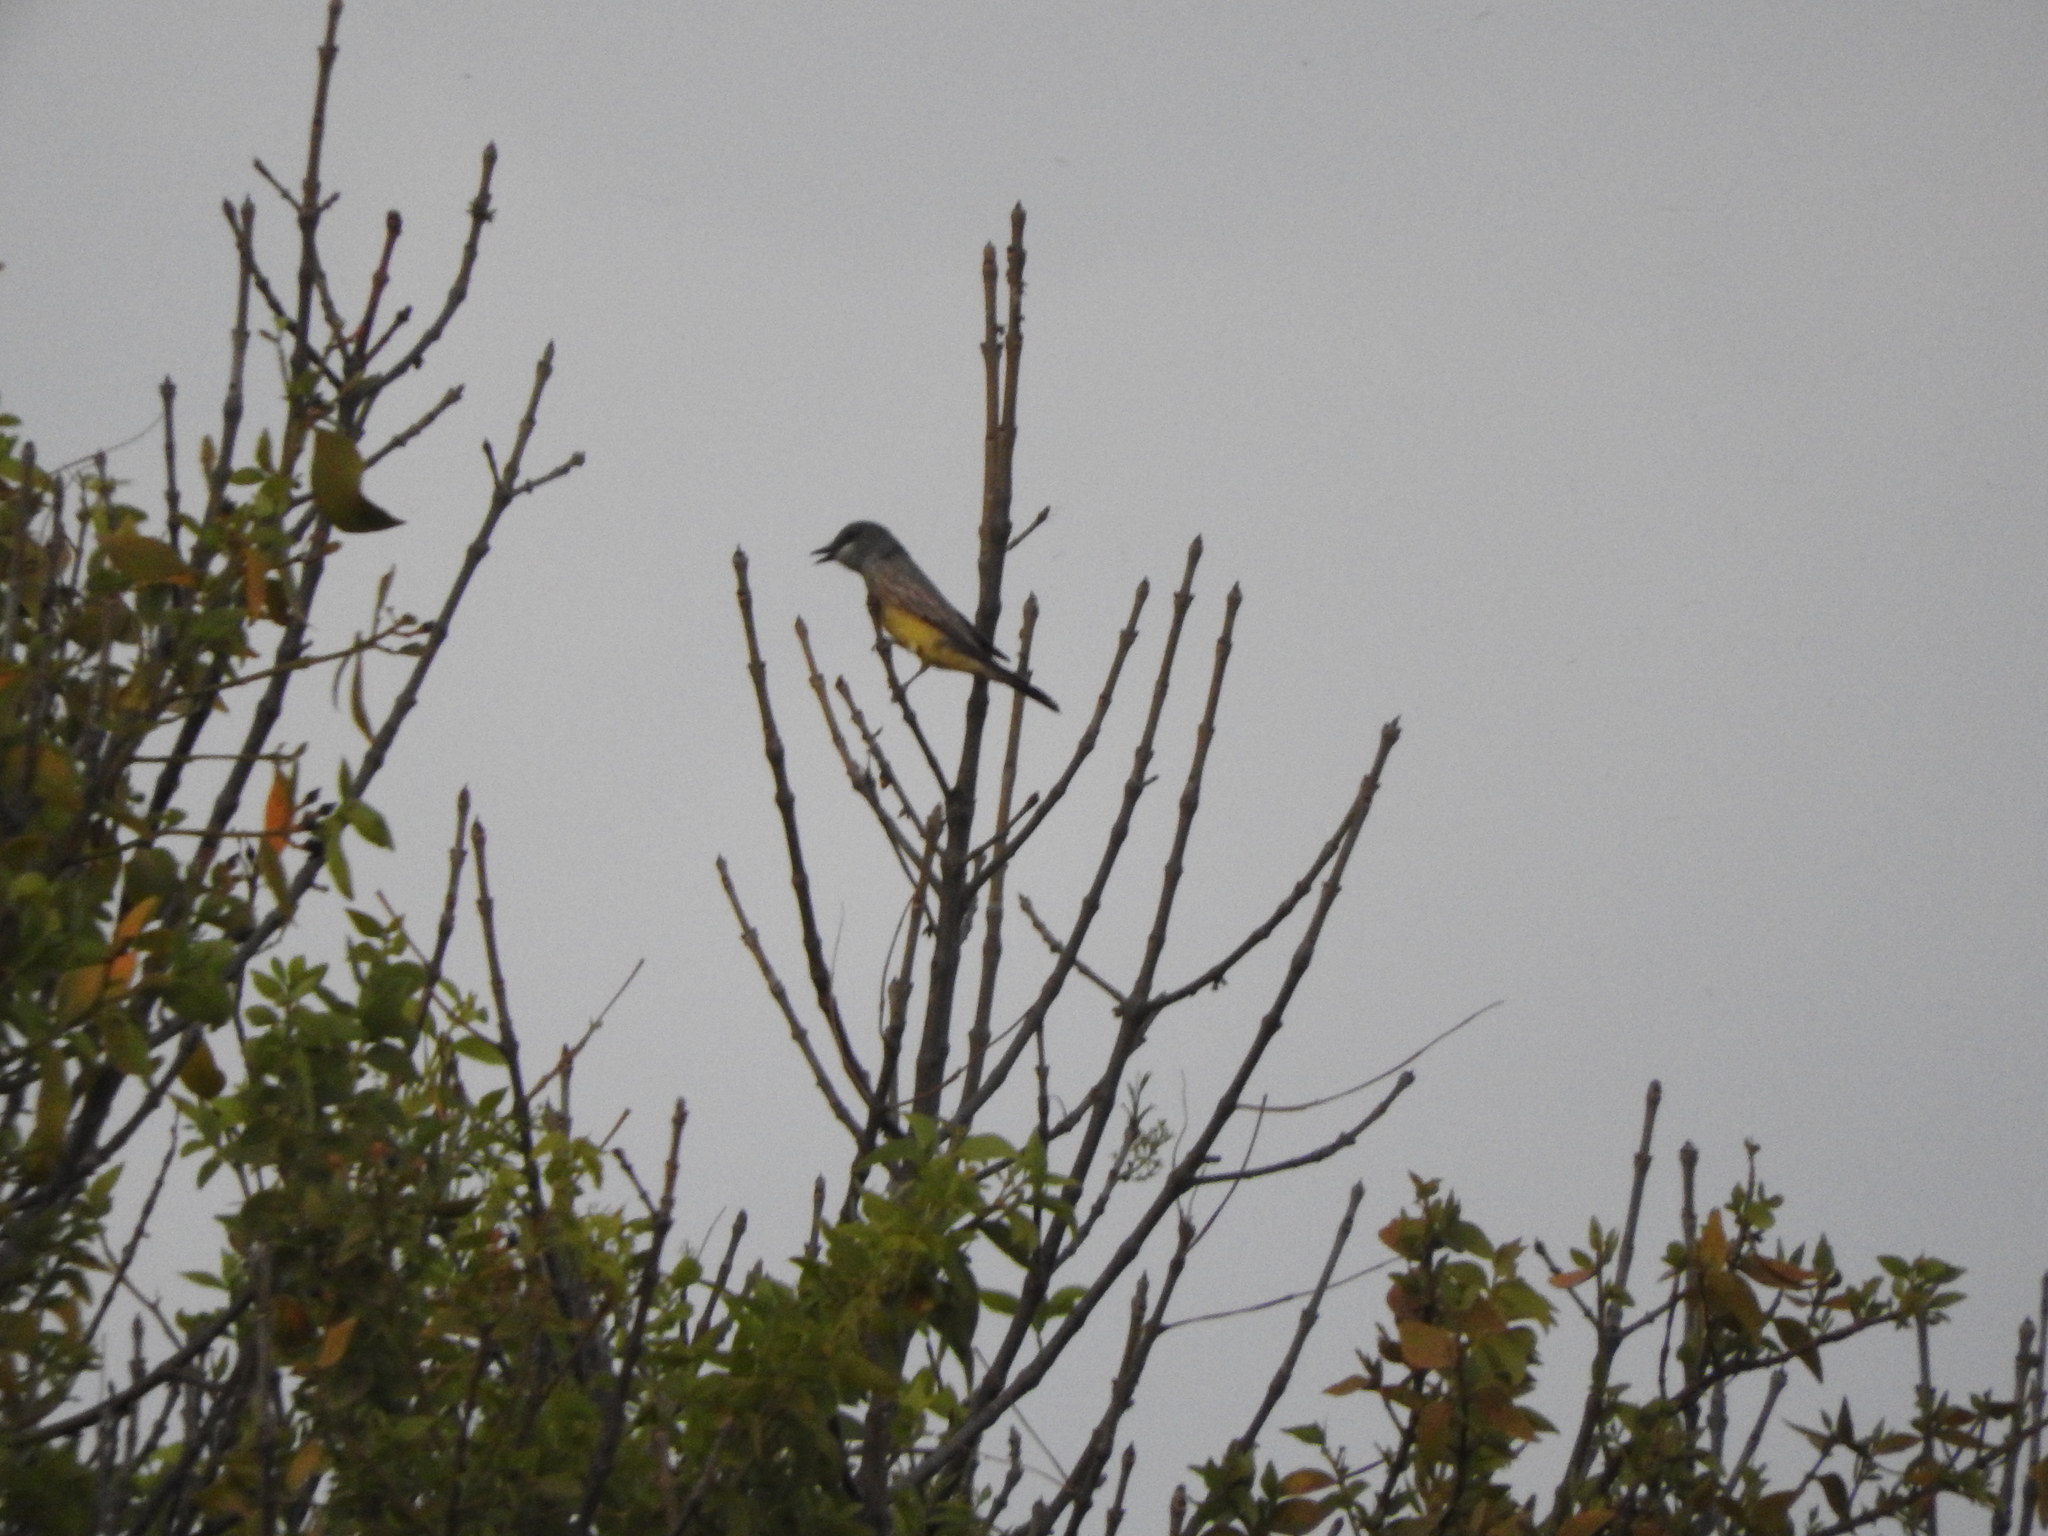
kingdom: Animalia
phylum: Chordata
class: Aves
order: Passeriformes
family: Tyrannidae
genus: Tyrannus
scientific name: Tyrannus vociferans
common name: Cassin's kingbird
